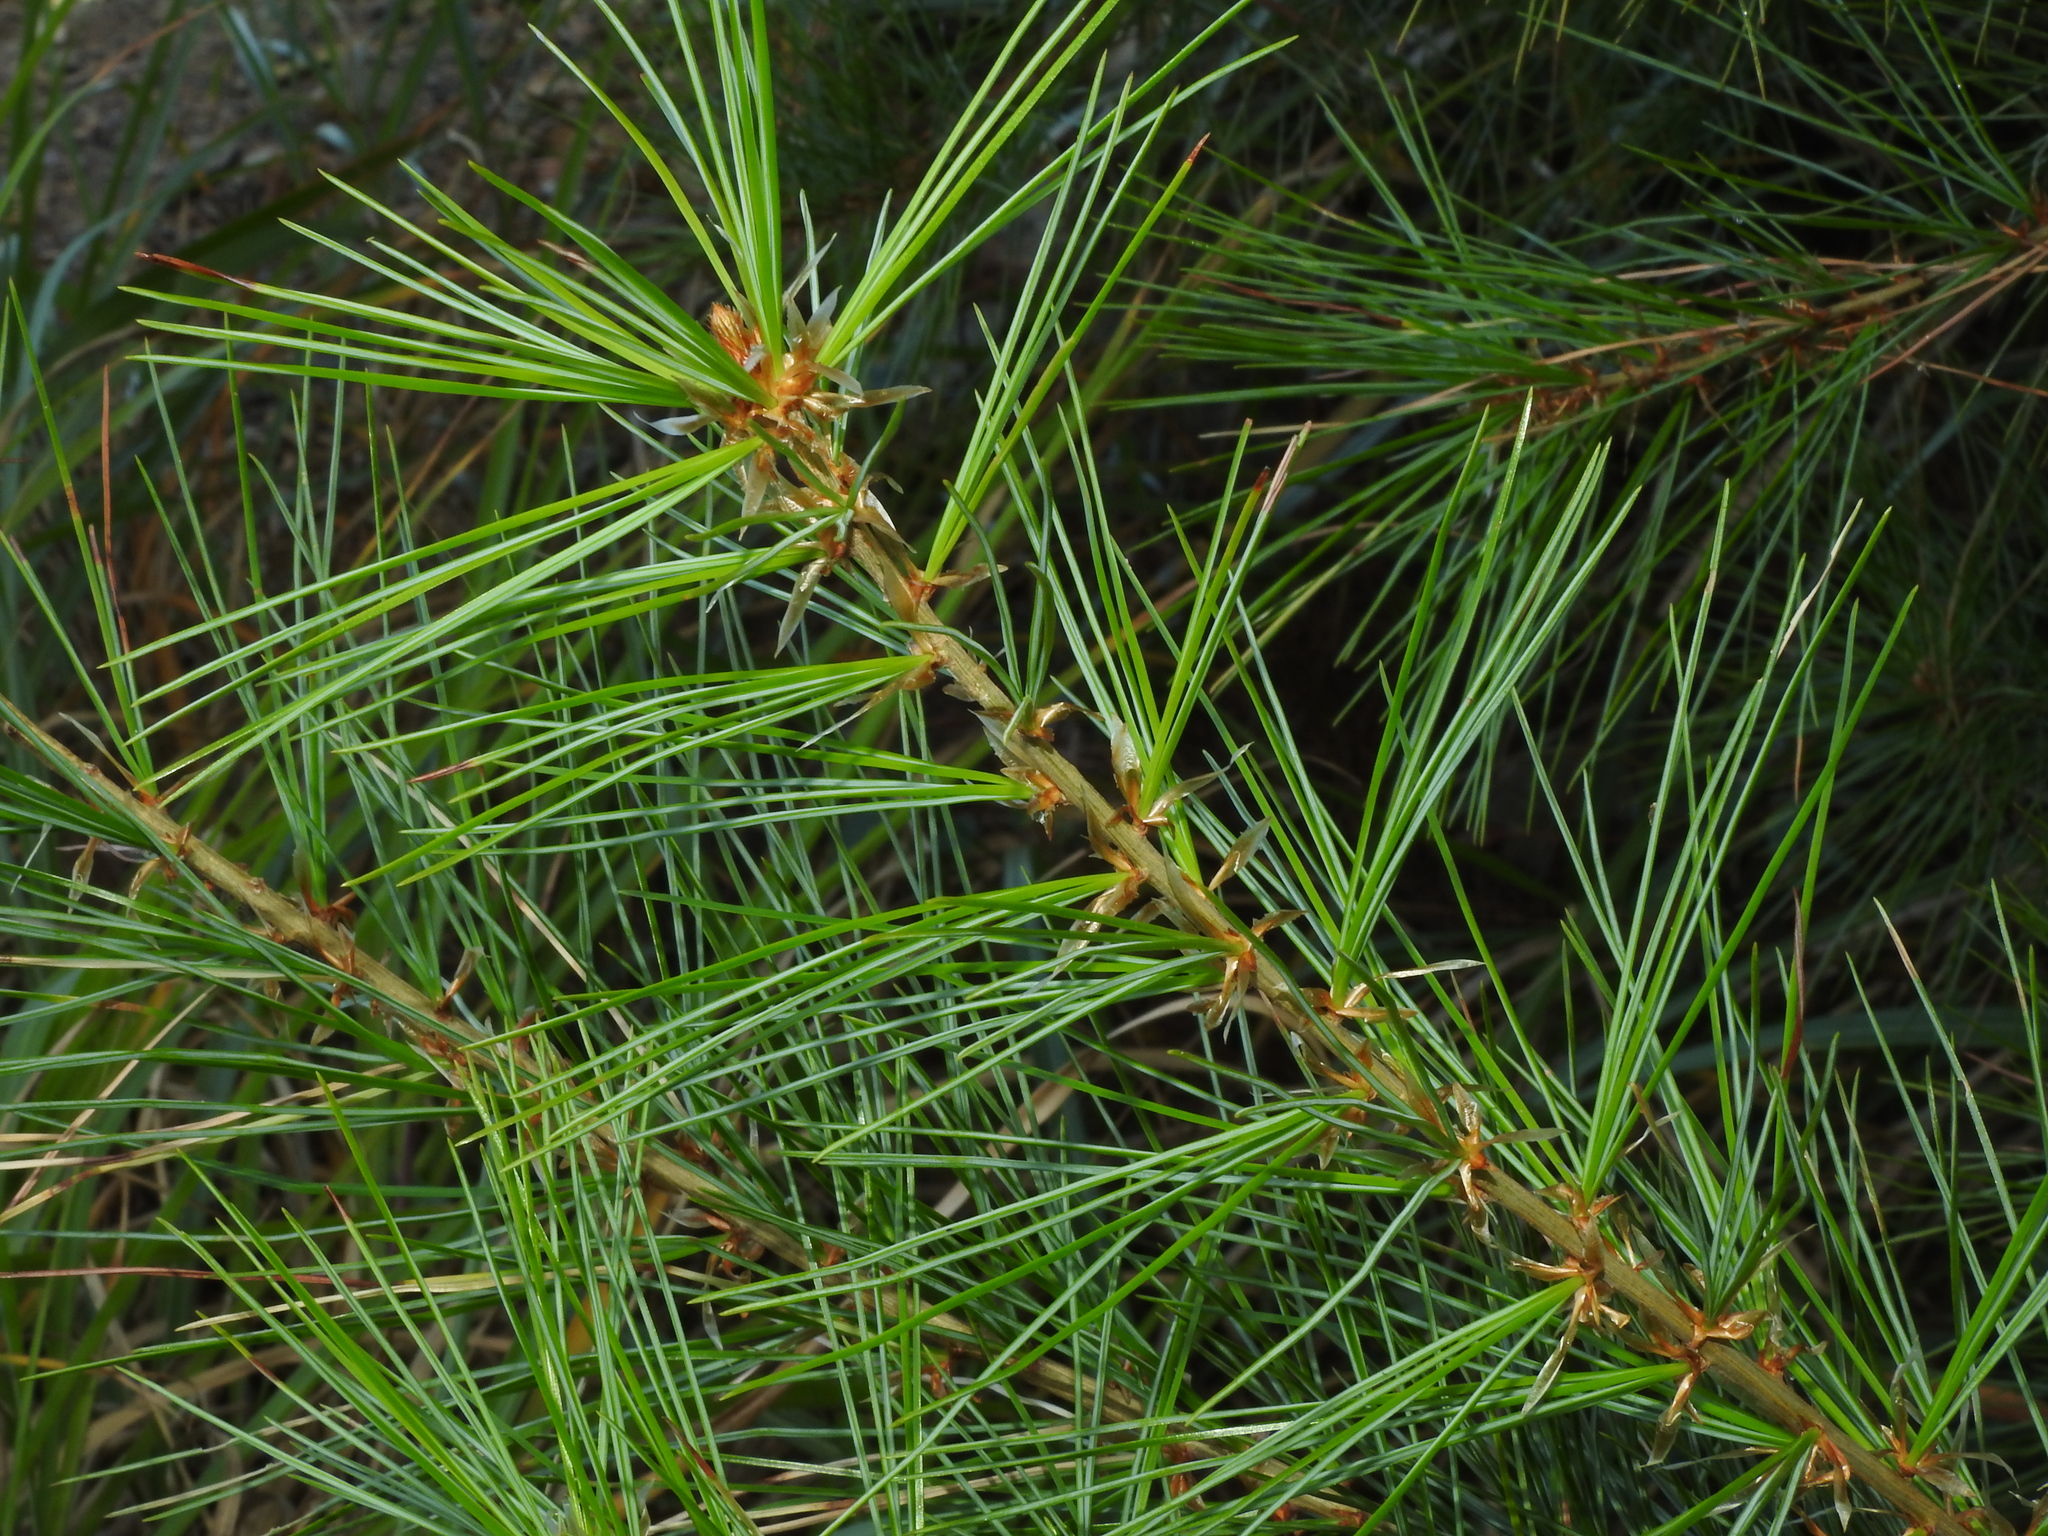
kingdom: Plantae
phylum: Tracheophyta
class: Pinopsida
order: Pinales
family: Pinaceae
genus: Pinus
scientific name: Pinus morrisonicola
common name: Taiwan white pine
